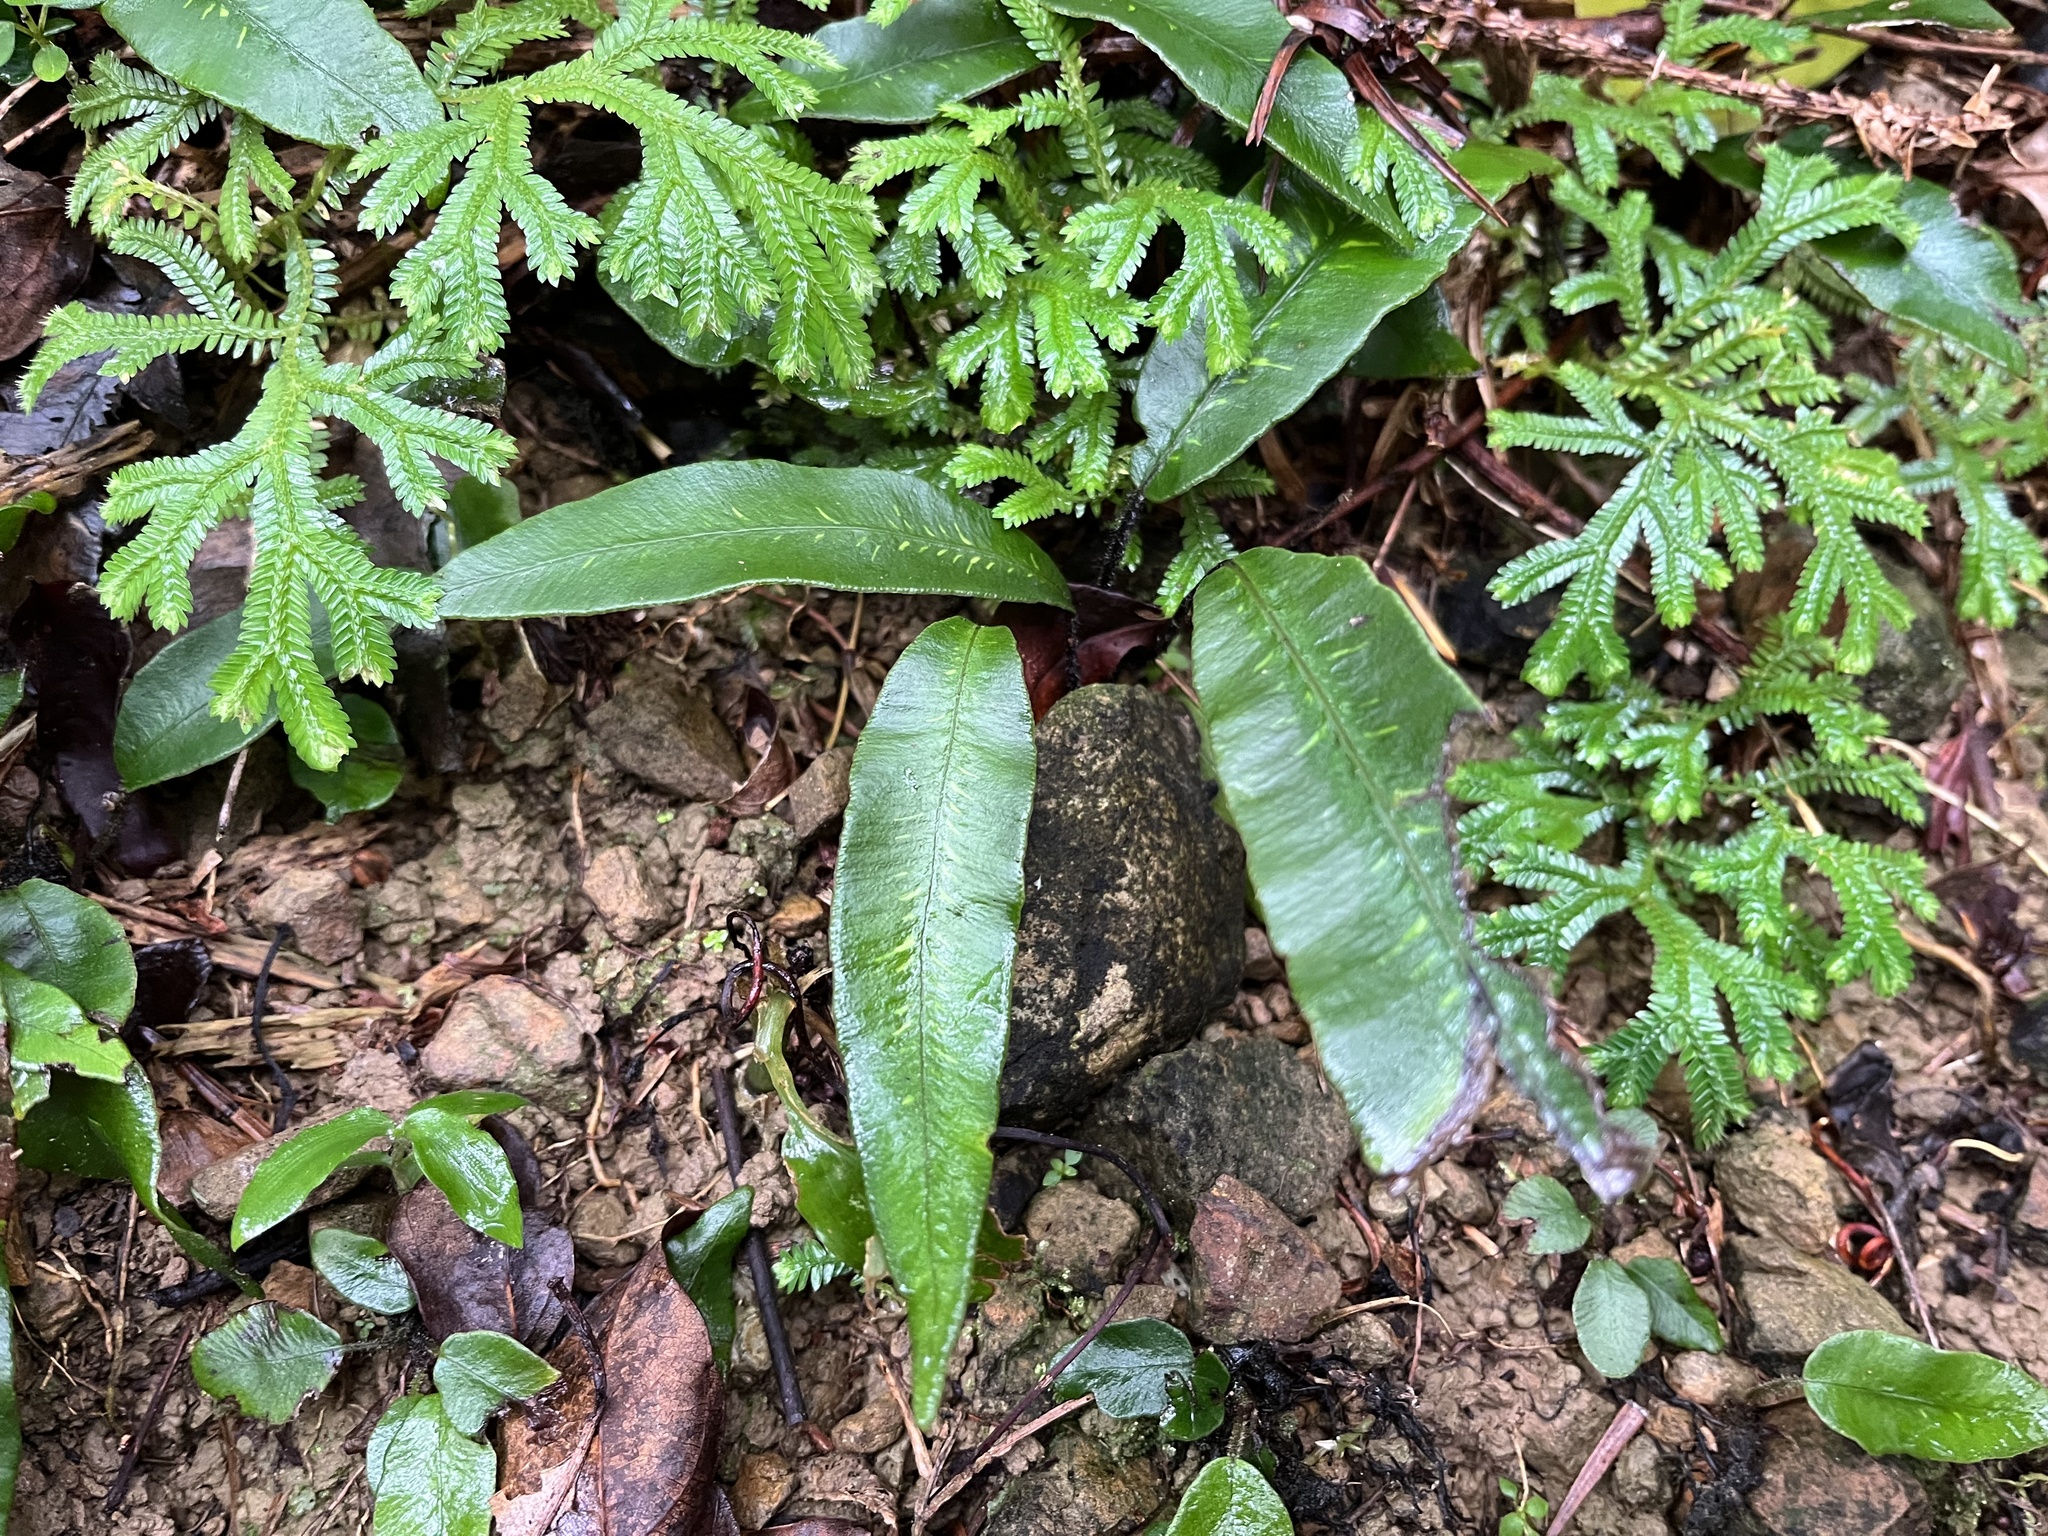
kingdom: Plantae
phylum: Tracheophyta
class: Polypodiopsida
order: Polypodiales
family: Athyriaceae
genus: Deparia
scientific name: Deparia lancea
